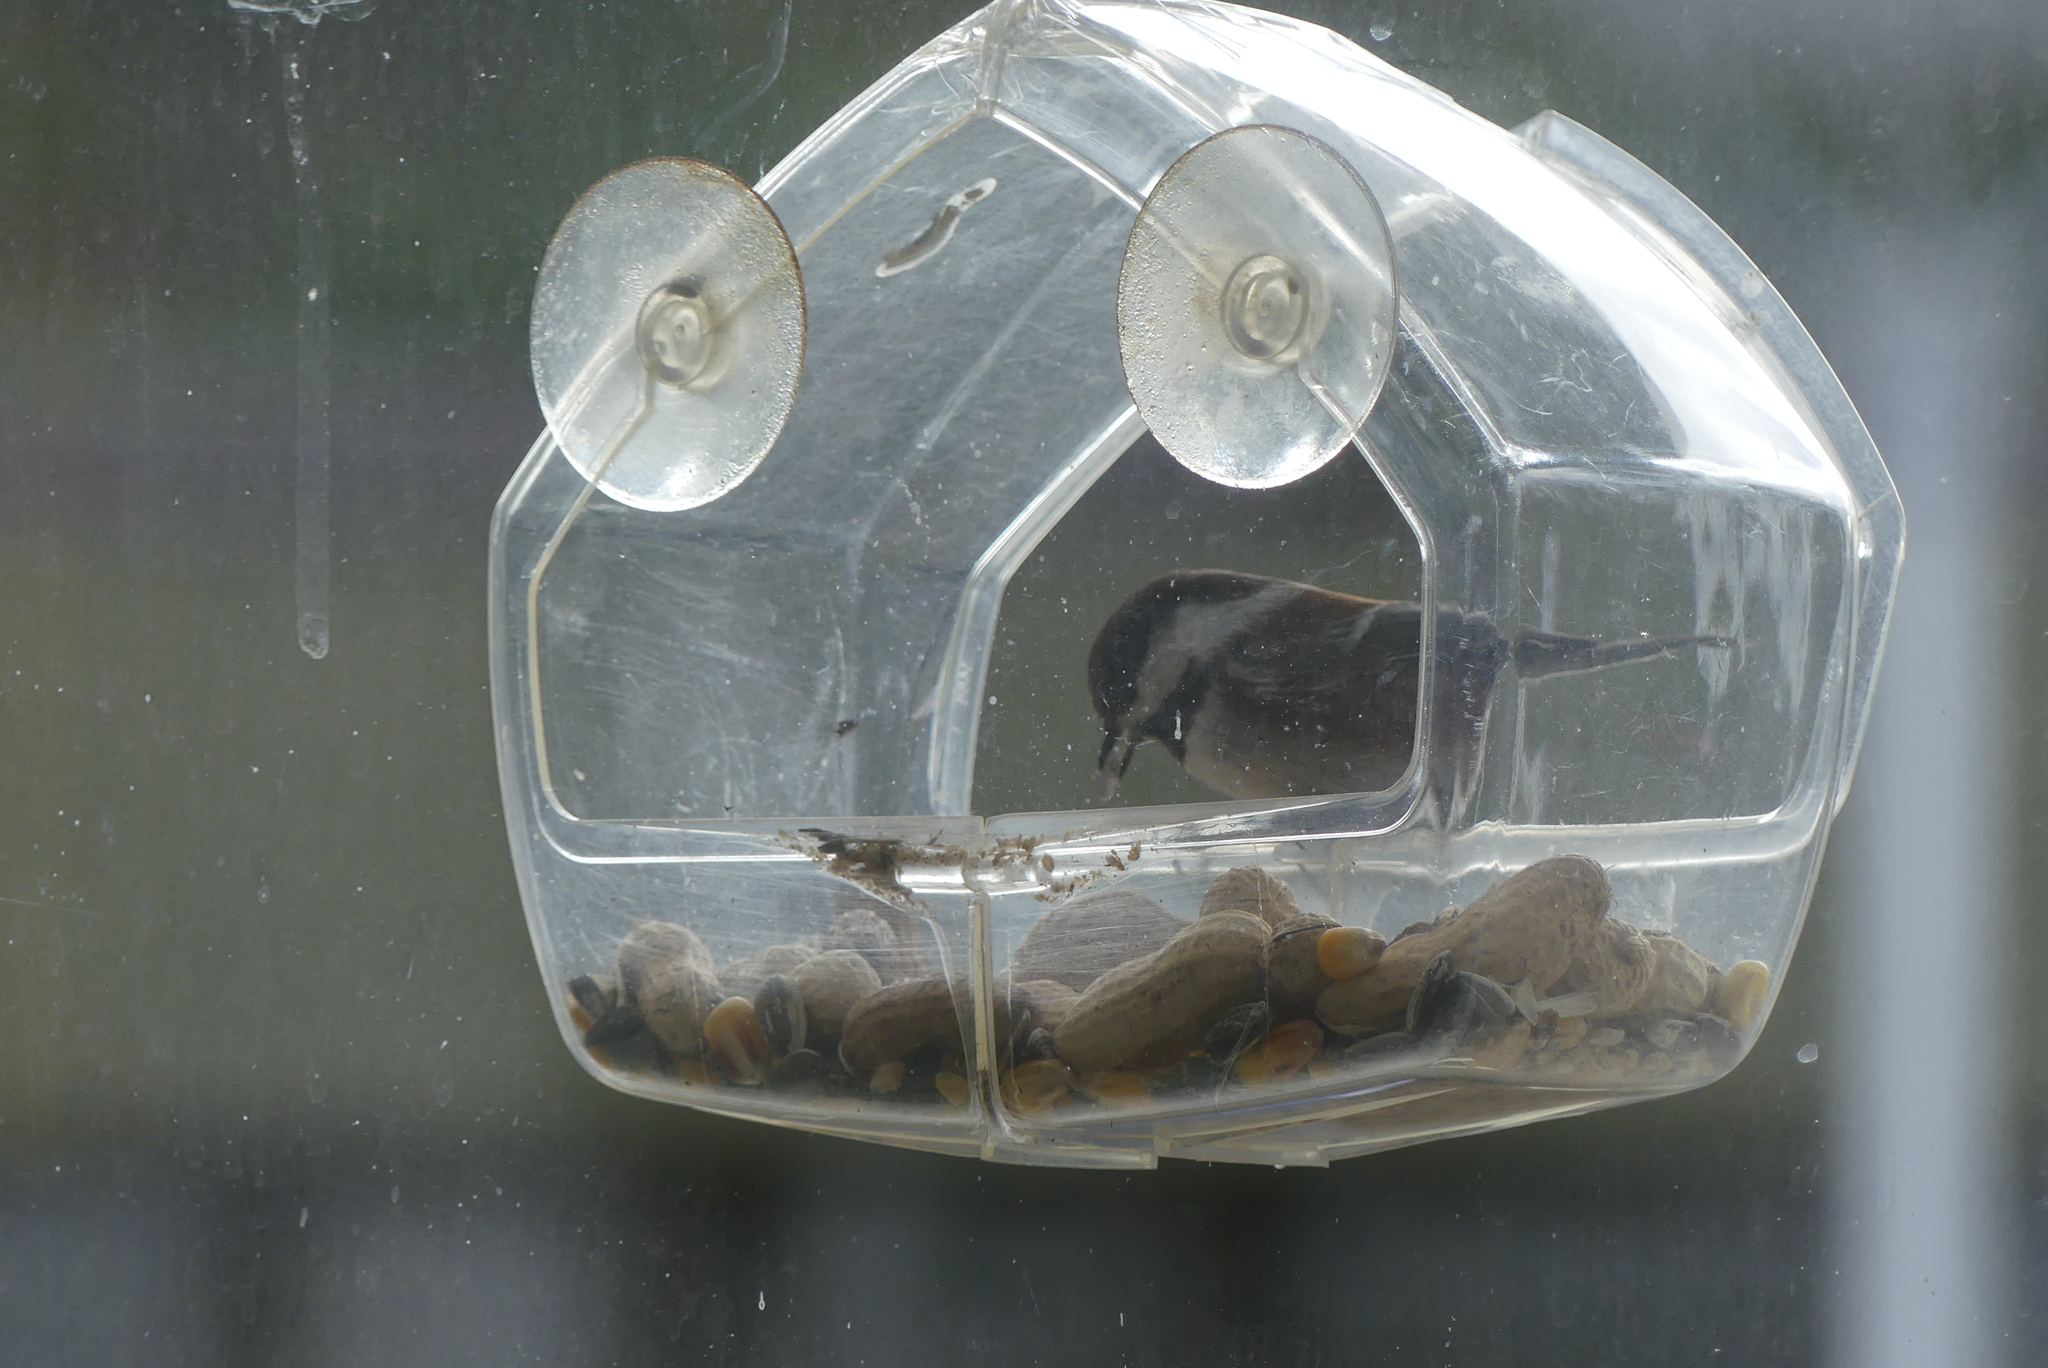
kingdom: Animalia
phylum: Chordata
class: Aves
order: Passeriformes
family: Paridae
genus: Poecile
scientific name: Poecile rufescens
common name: Chestnut-backed chickadee
